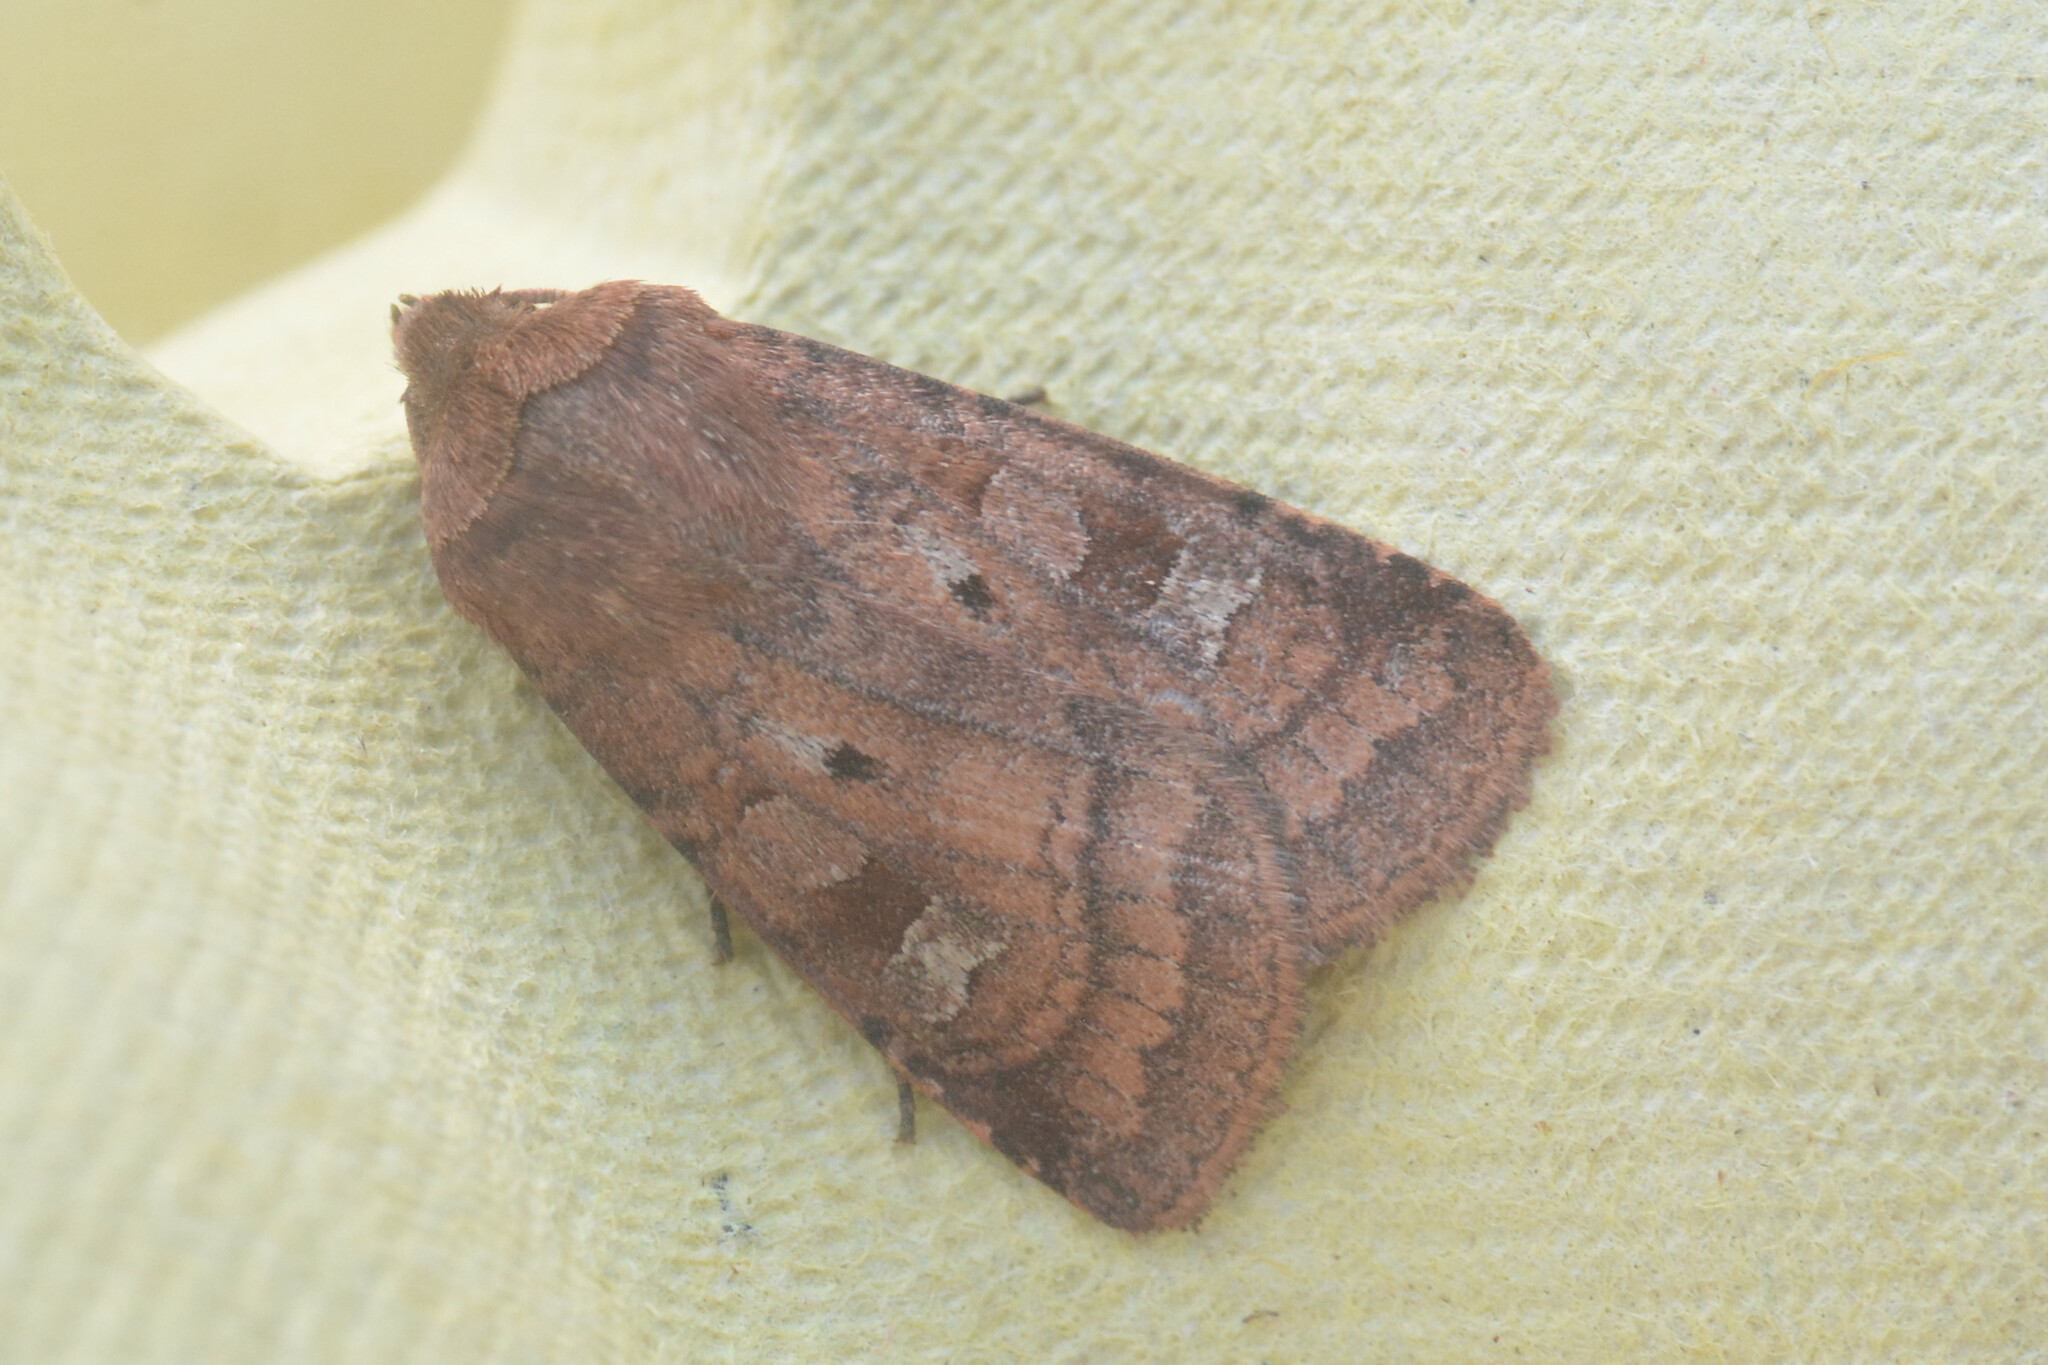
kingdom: Animalia
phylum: Arthropoda
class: Insecta
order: Lepidoptera
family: Noctuidae
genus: Diarsia
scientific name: Diarsia rubi
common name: Small square-spot
